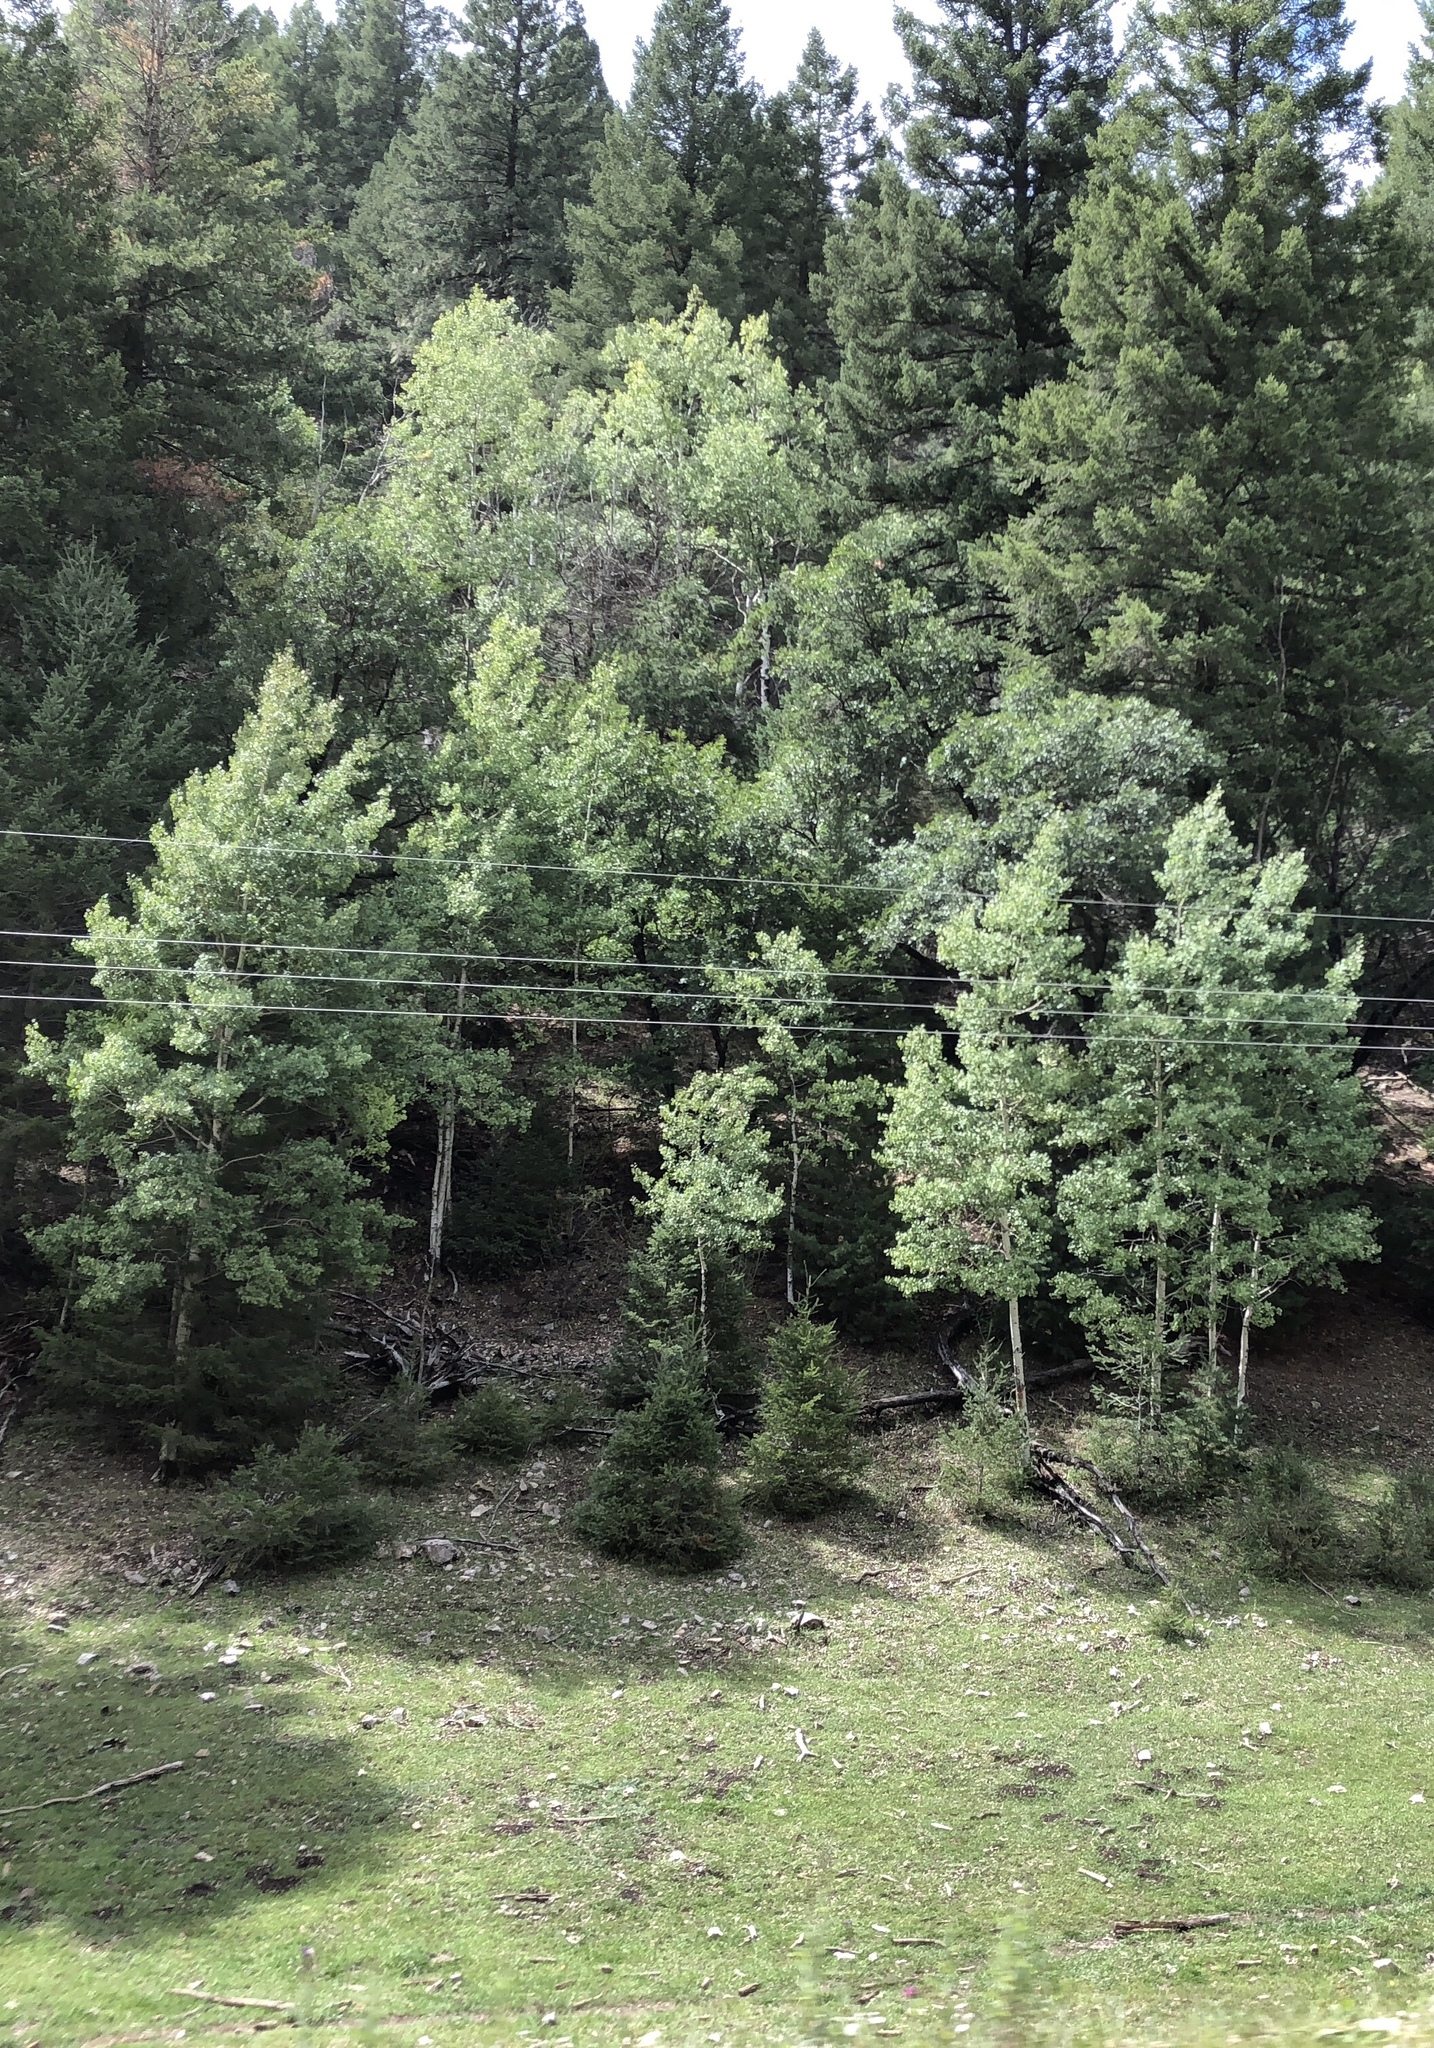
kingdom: Plantae
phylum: Tracheophyta
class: Magnoliopsida
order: Malpighiales
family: Salicaceae
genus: Populus
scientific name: Populus tremuloides
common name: Quaking aspen
